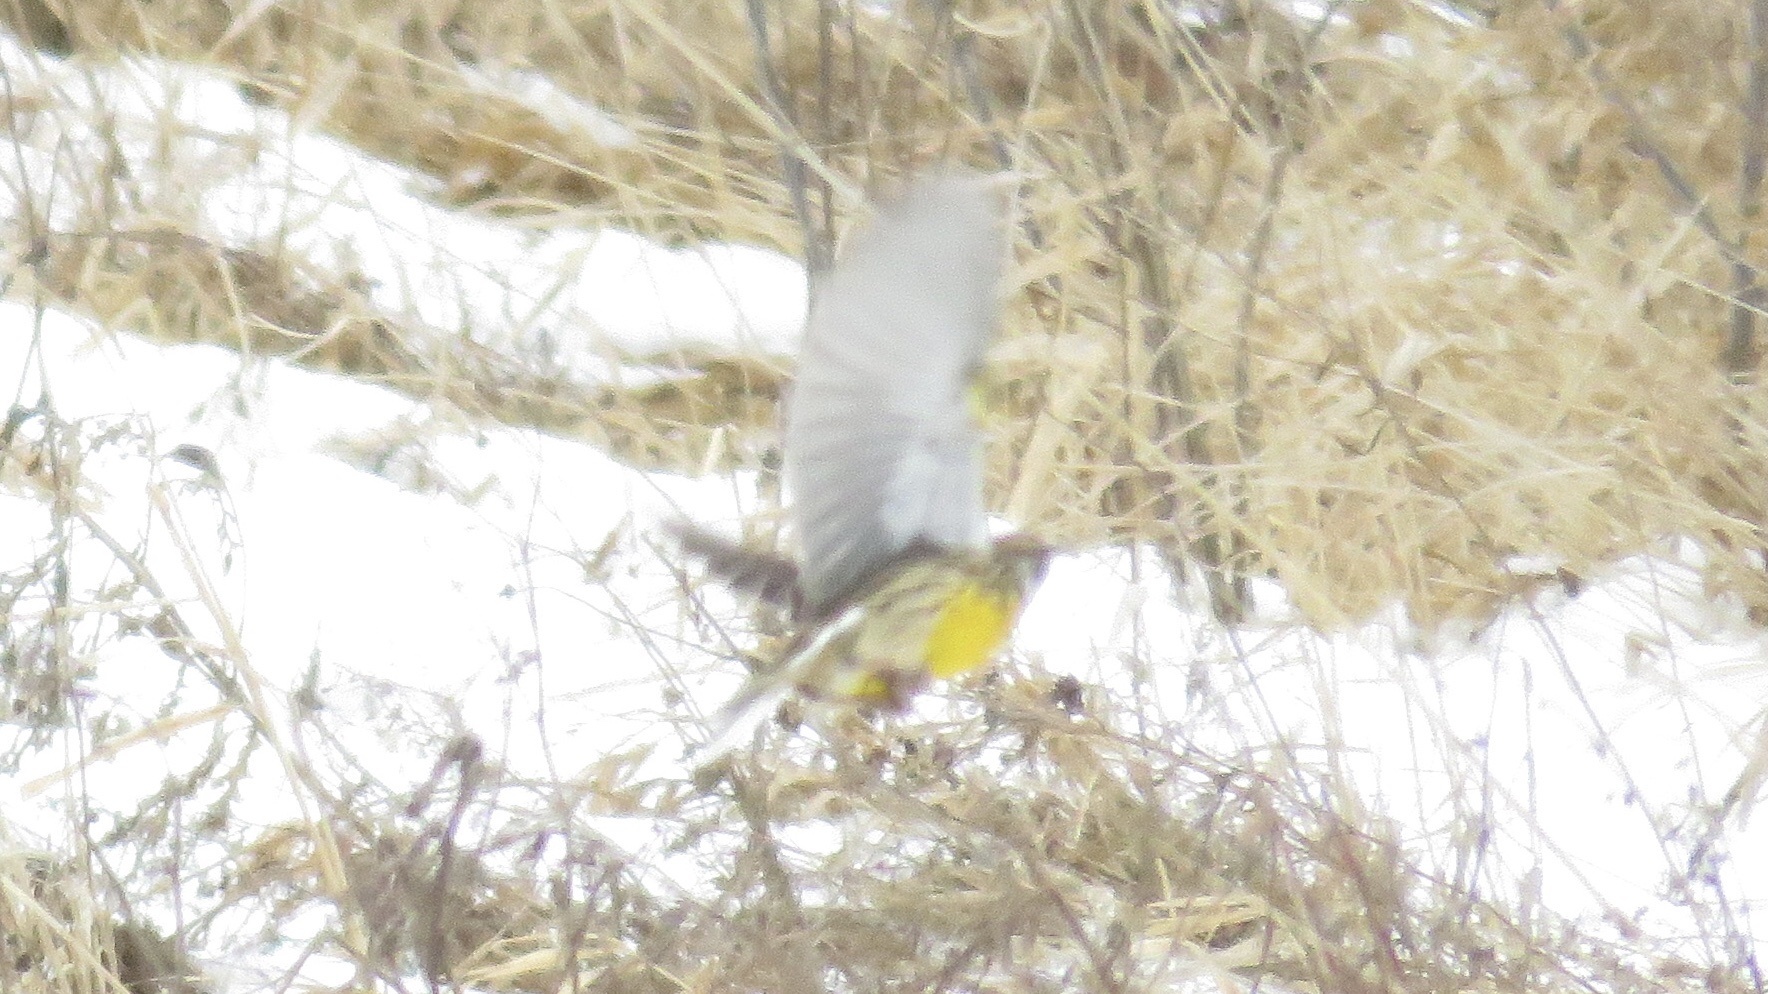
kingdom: Animalia
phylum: Chordata
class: Aves
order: Passeriformes
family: Icteridae
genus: Sturnella
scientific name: Sturnella magna
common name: Eastern meadowlark
